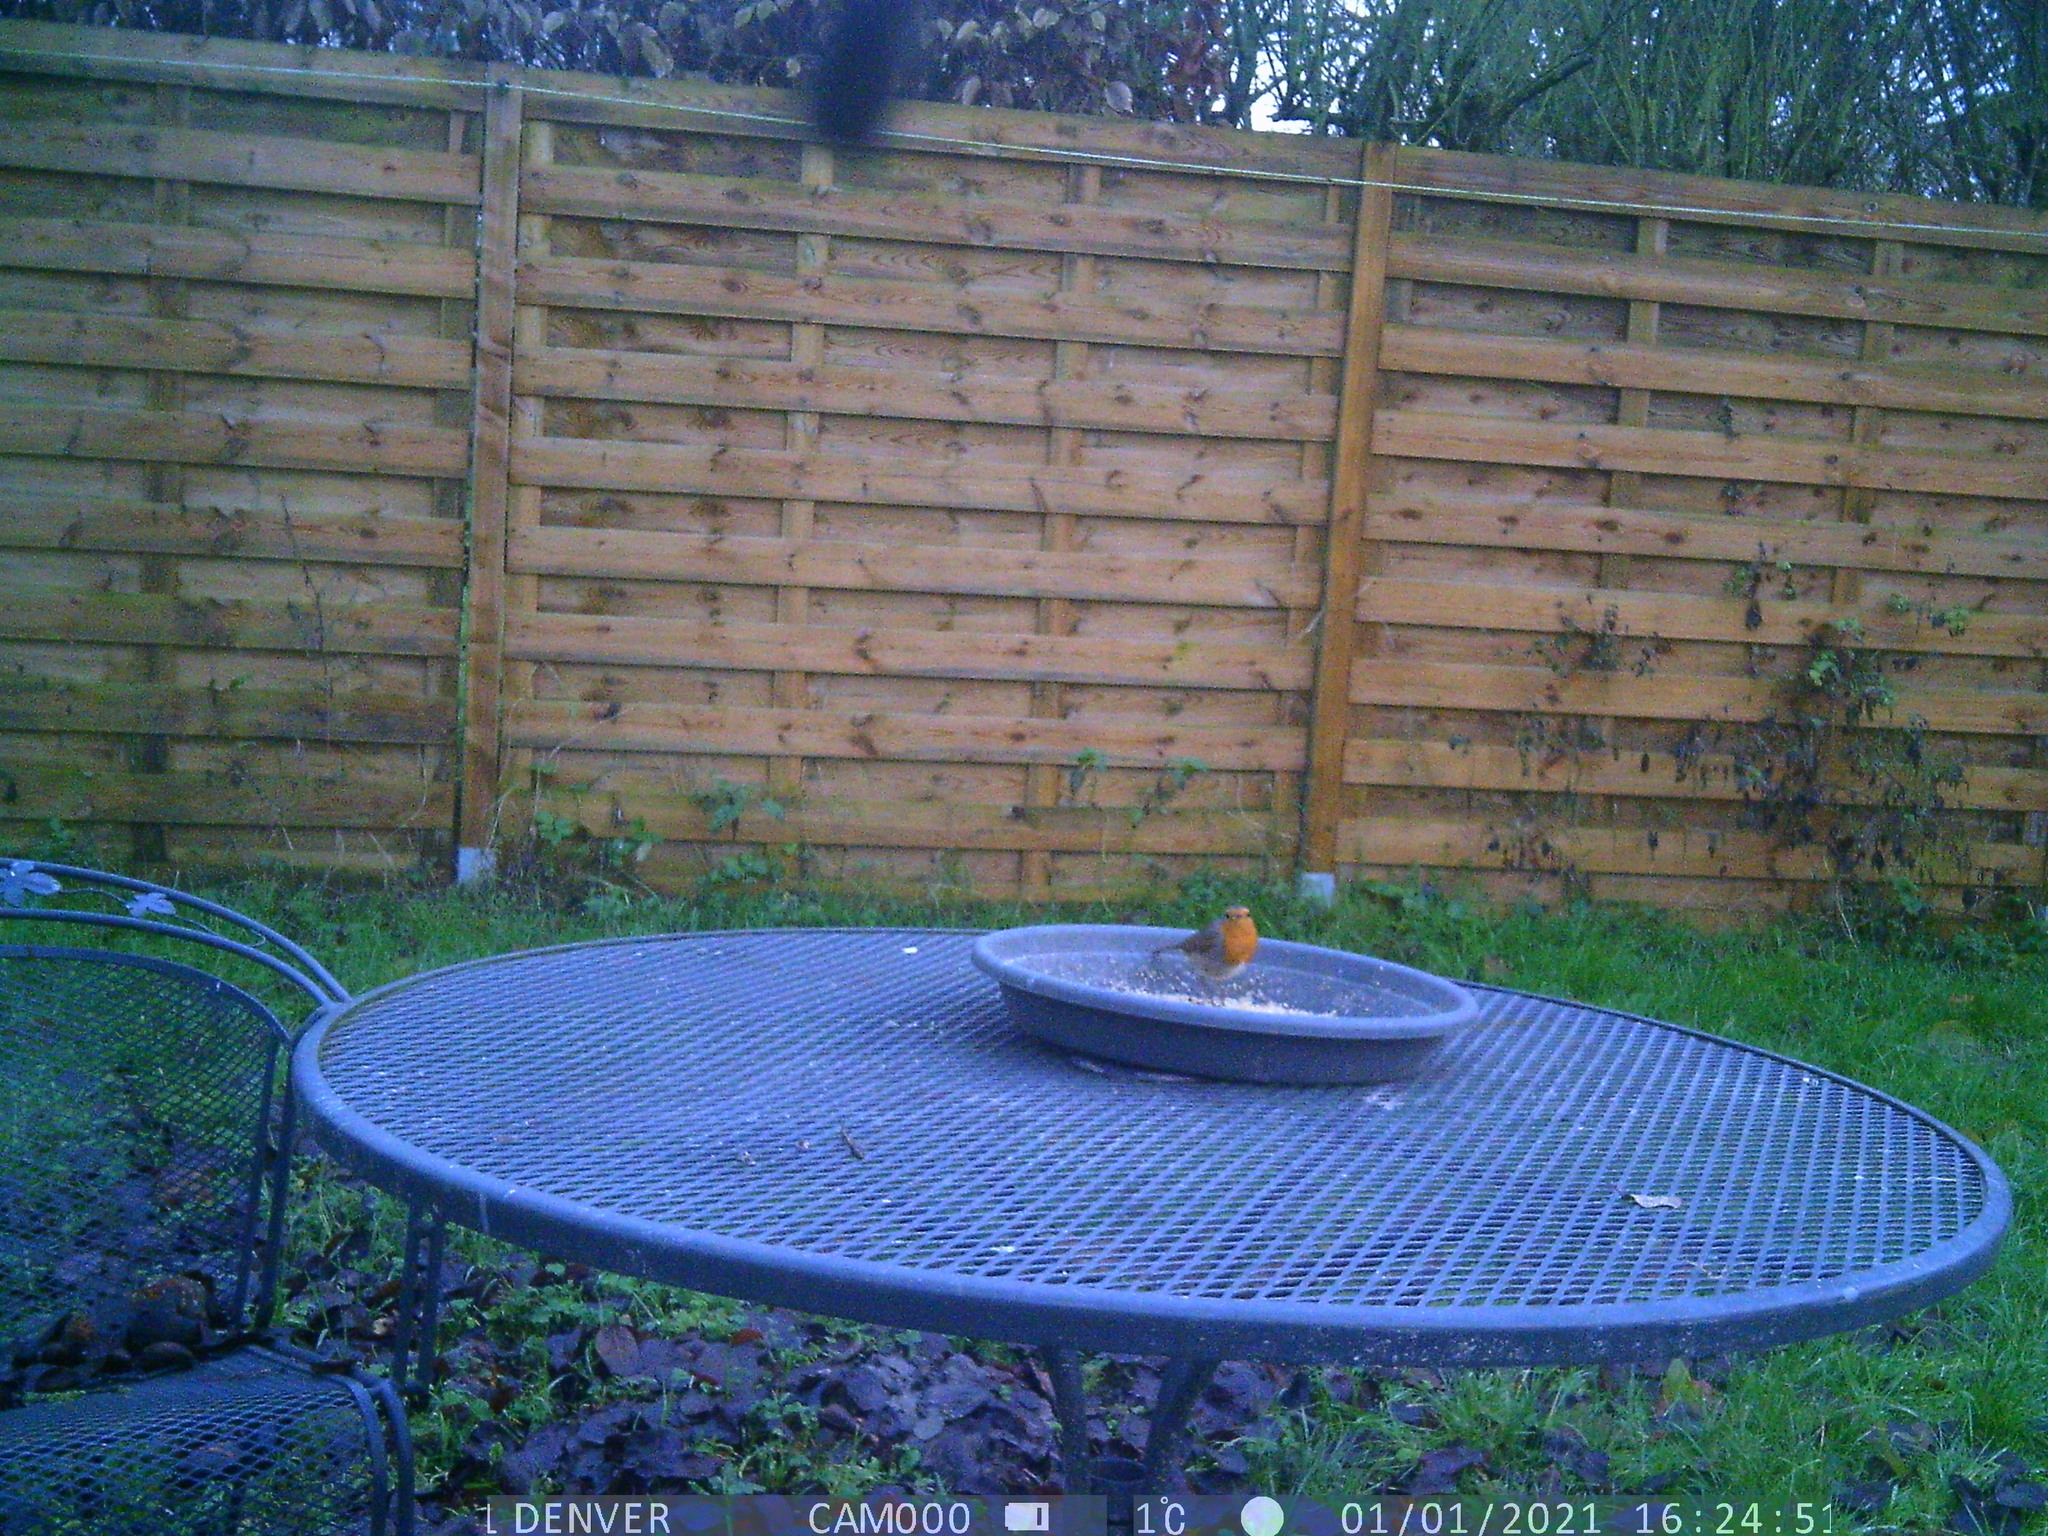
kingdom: Animalia
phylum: Chordata
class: Aves
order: Passeriformes
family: Muscicapidae
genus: Erithacus
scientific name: Erithacus rubecula
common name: European robin
